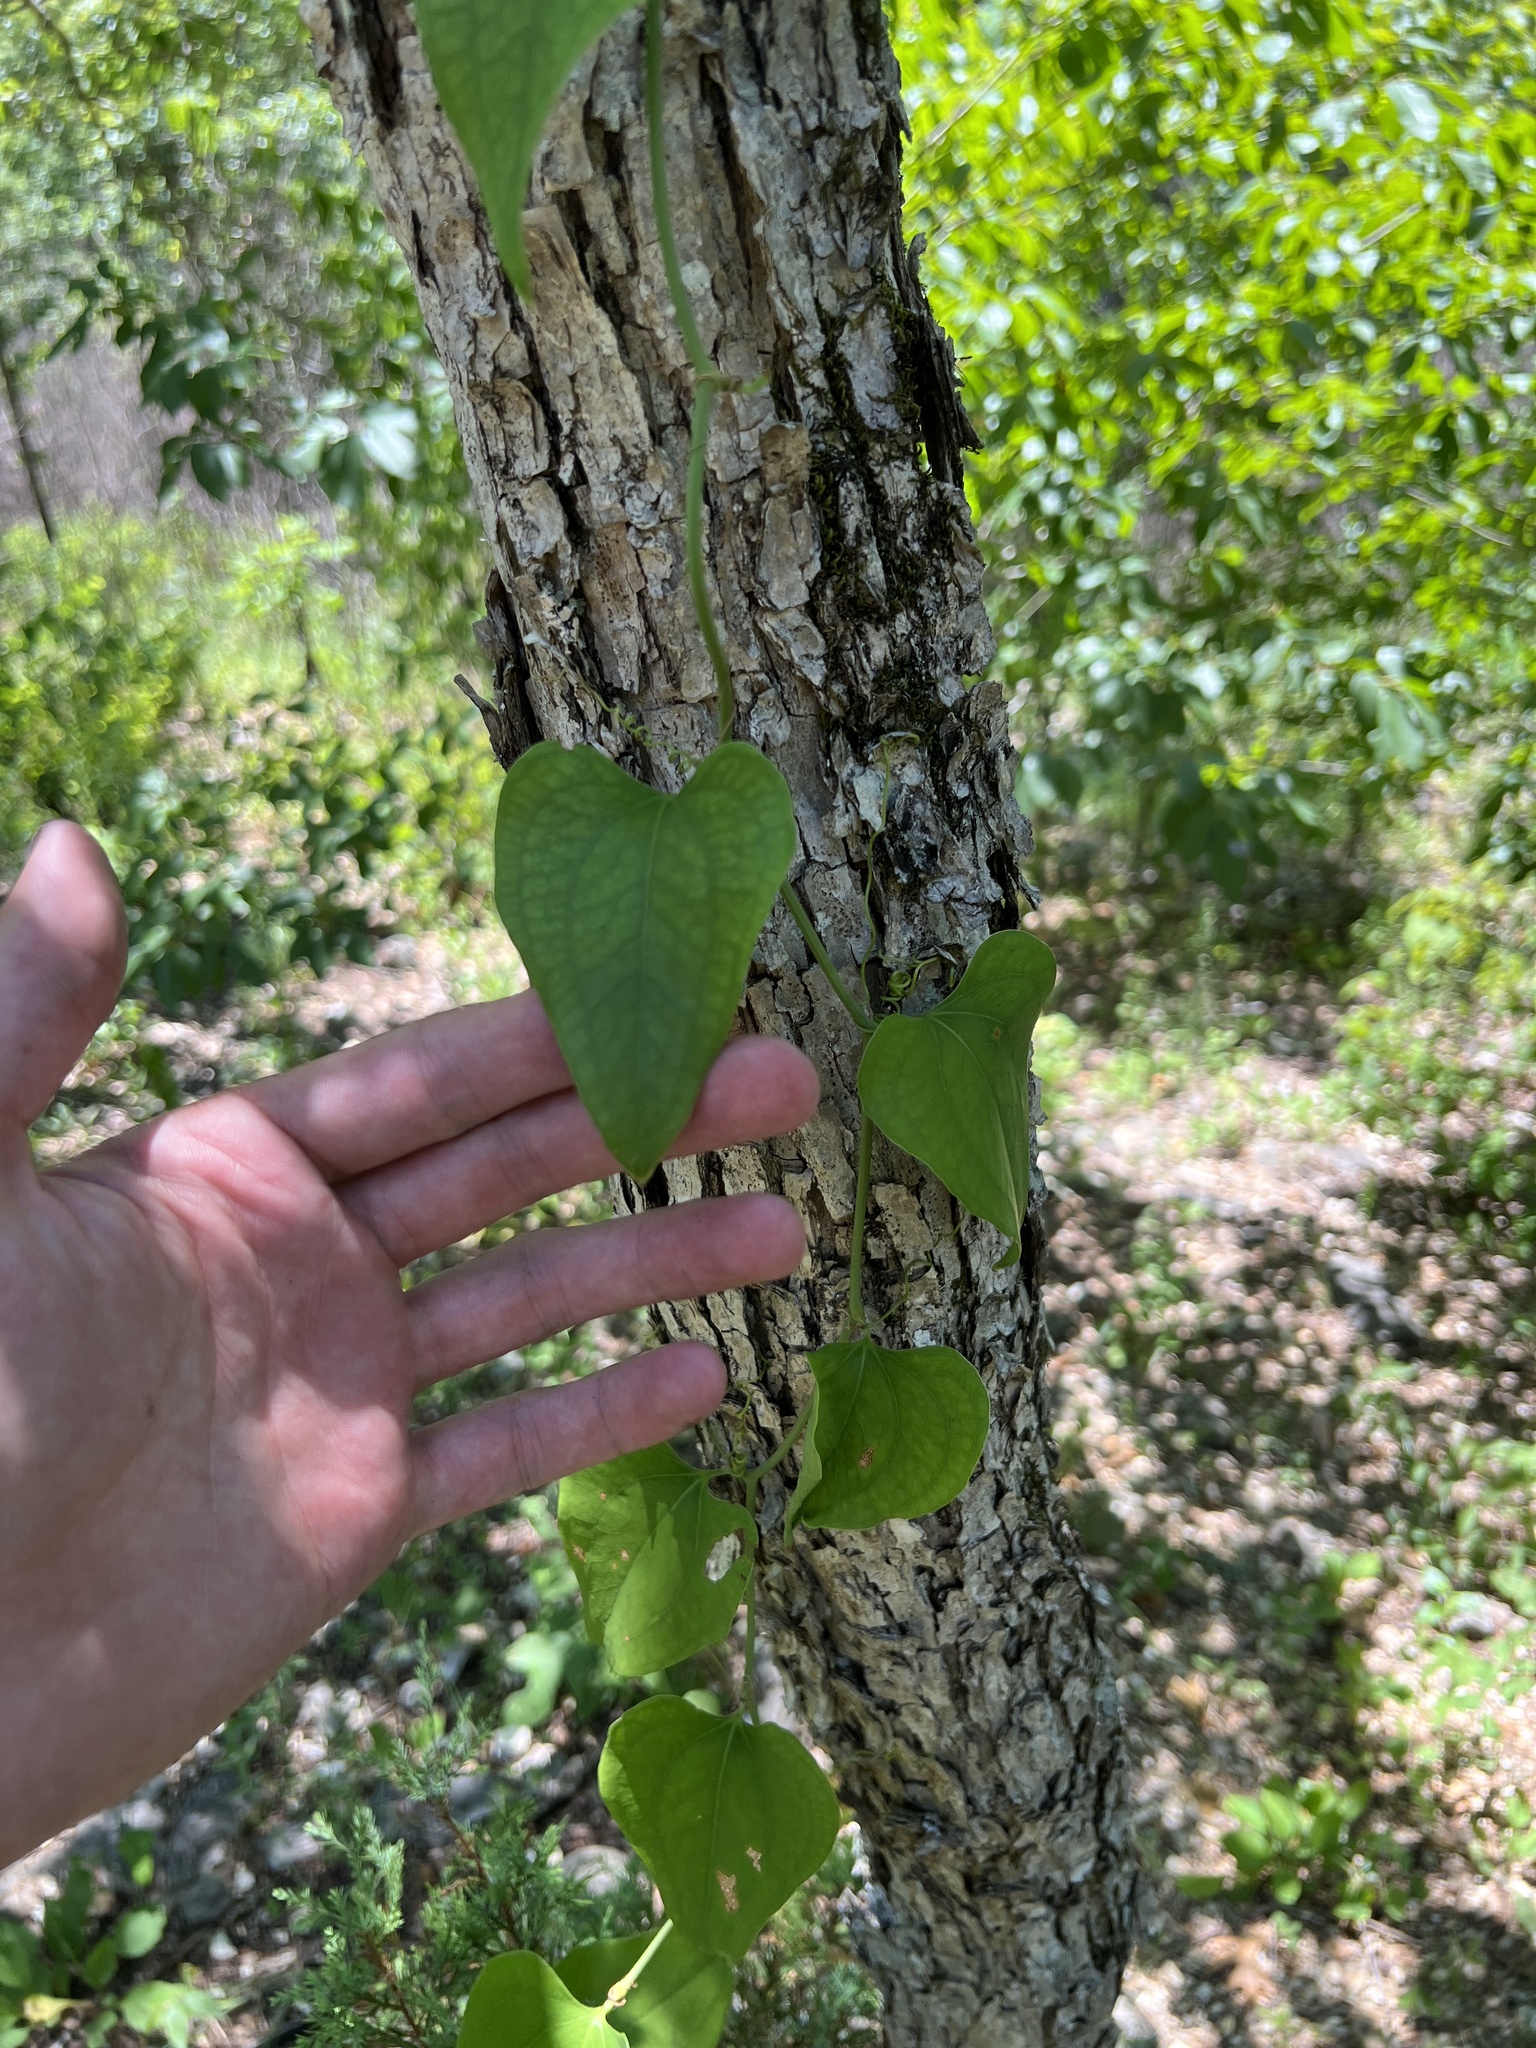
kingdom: Plantae
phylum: Tracheophyta
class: Liliopsida
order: Liliales
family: Smilacaceae
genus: Smilax
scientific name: Smilax bona-nox
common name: Catbrier
